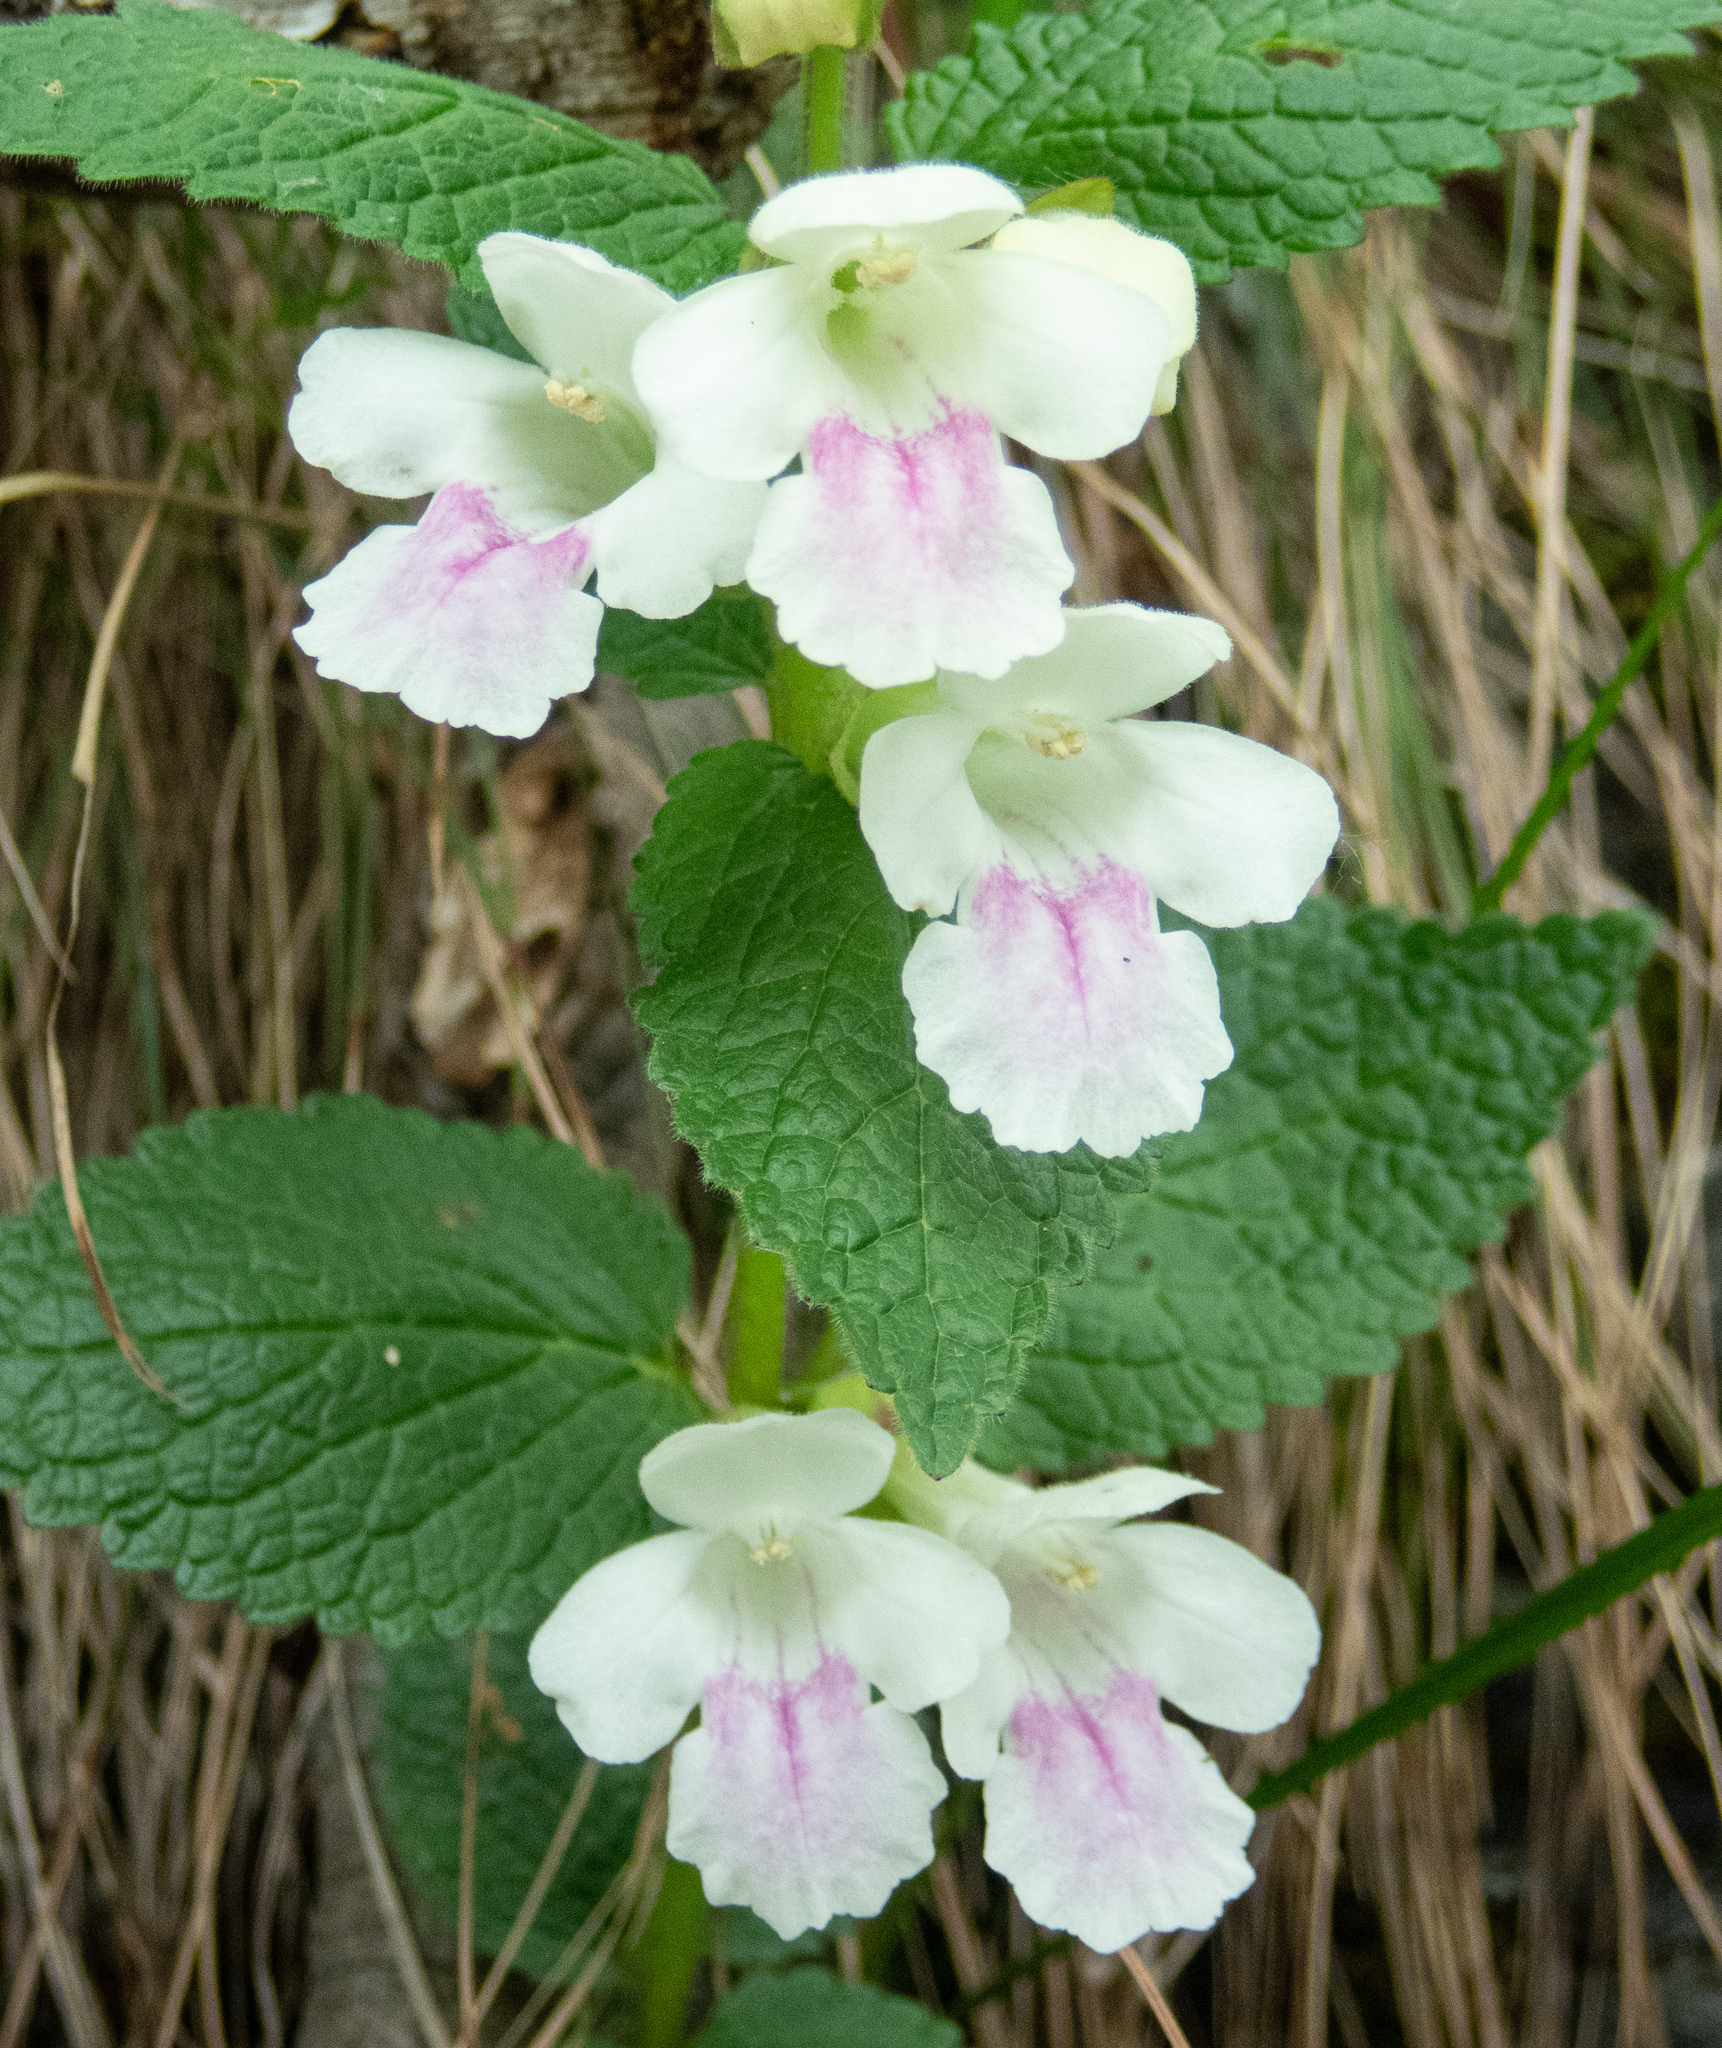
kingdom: Plantae
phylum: Tracheophyta
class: Magnoliopsida
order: Lamiales
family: Lamiaceae
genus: Melittis
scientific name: Melittis melissophyllum
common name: Bastard balm
